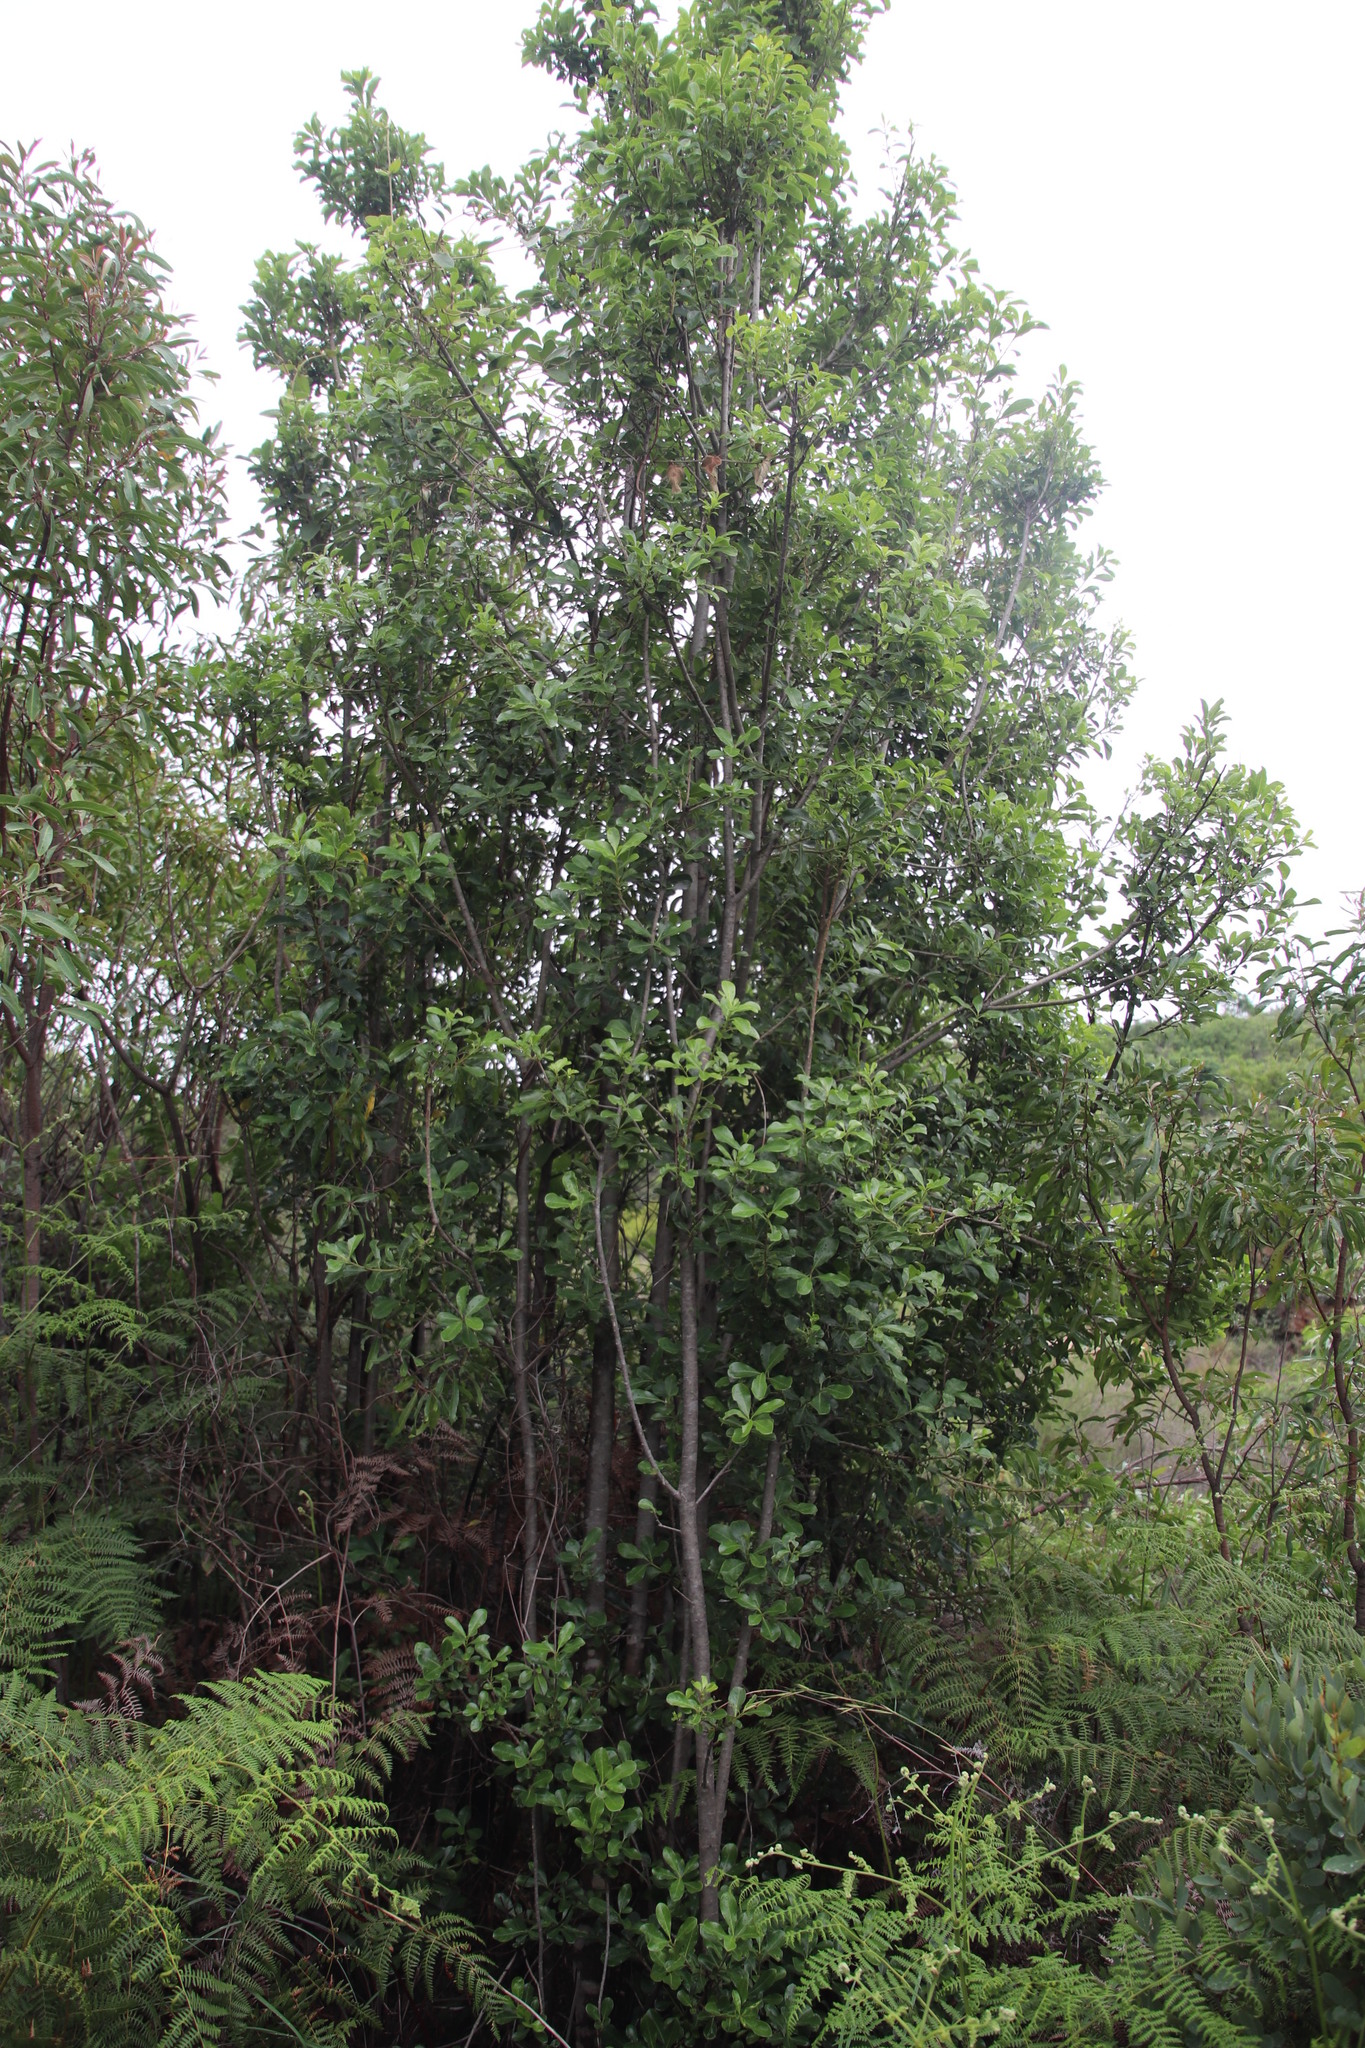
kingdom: Plantae
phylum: Tracheophyta
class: Magnoliopsida
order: Apiales
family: Pittosporaceae
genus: Pittosporum
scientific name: Pittosporum viridiflorum
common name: Cape cheesewood
